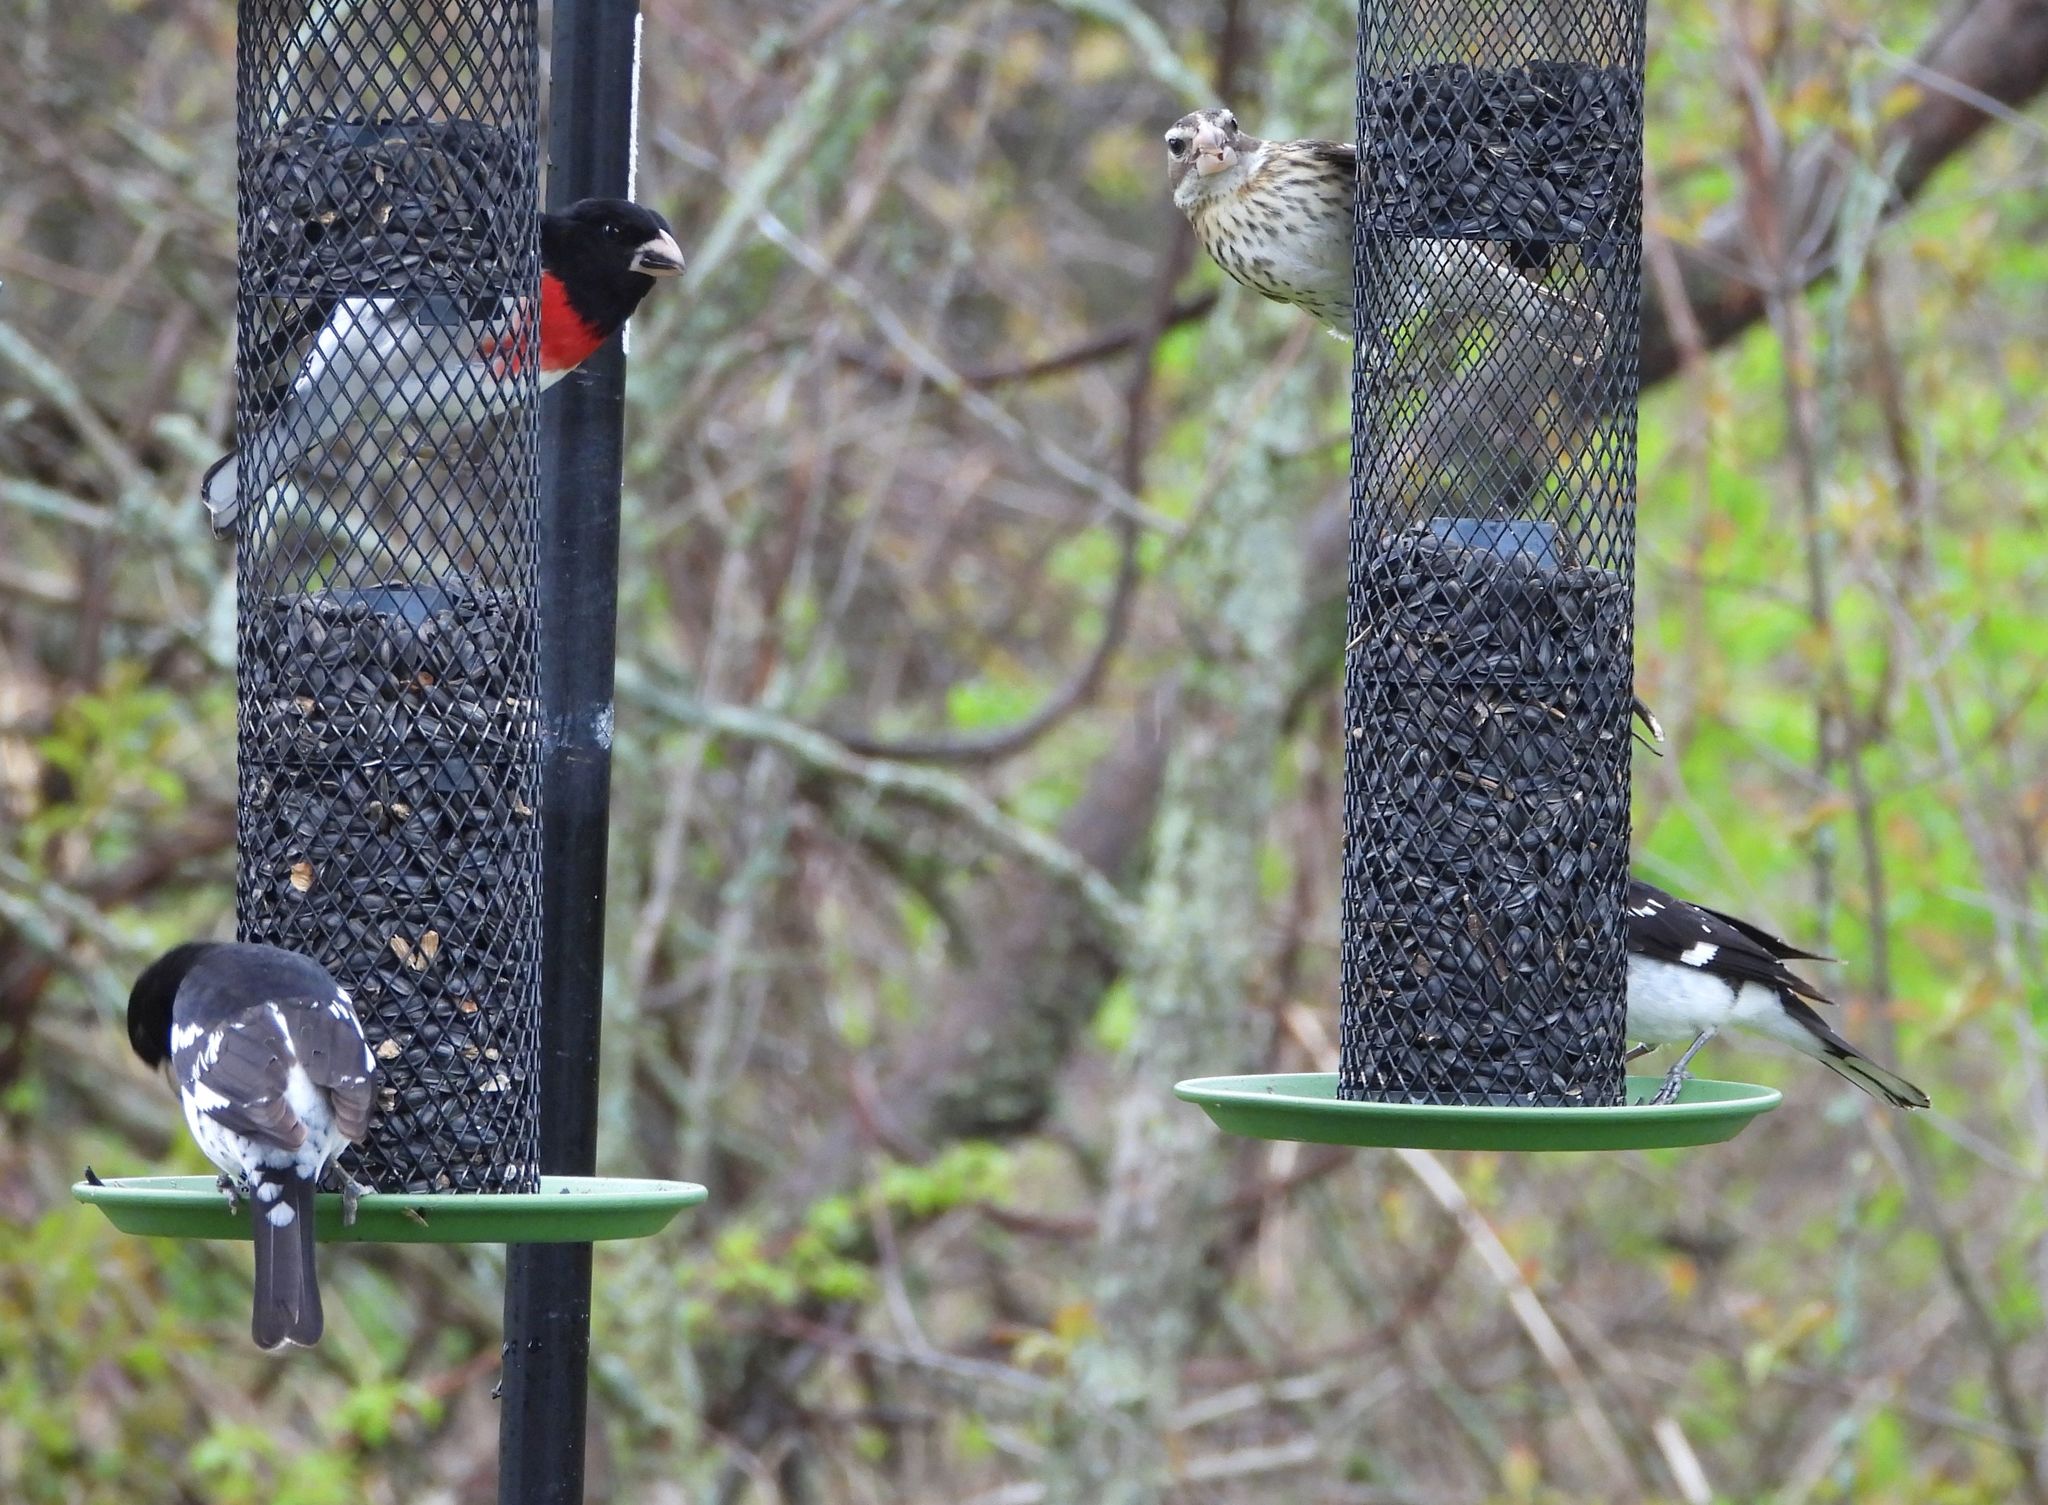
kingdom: Animalia
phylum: Chordata
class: Aves
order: Passeriformes
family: Cardinalidae
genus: Pheucticus
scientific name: Pheucticus ludovicianus
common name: Rose-breasted grosbeak
